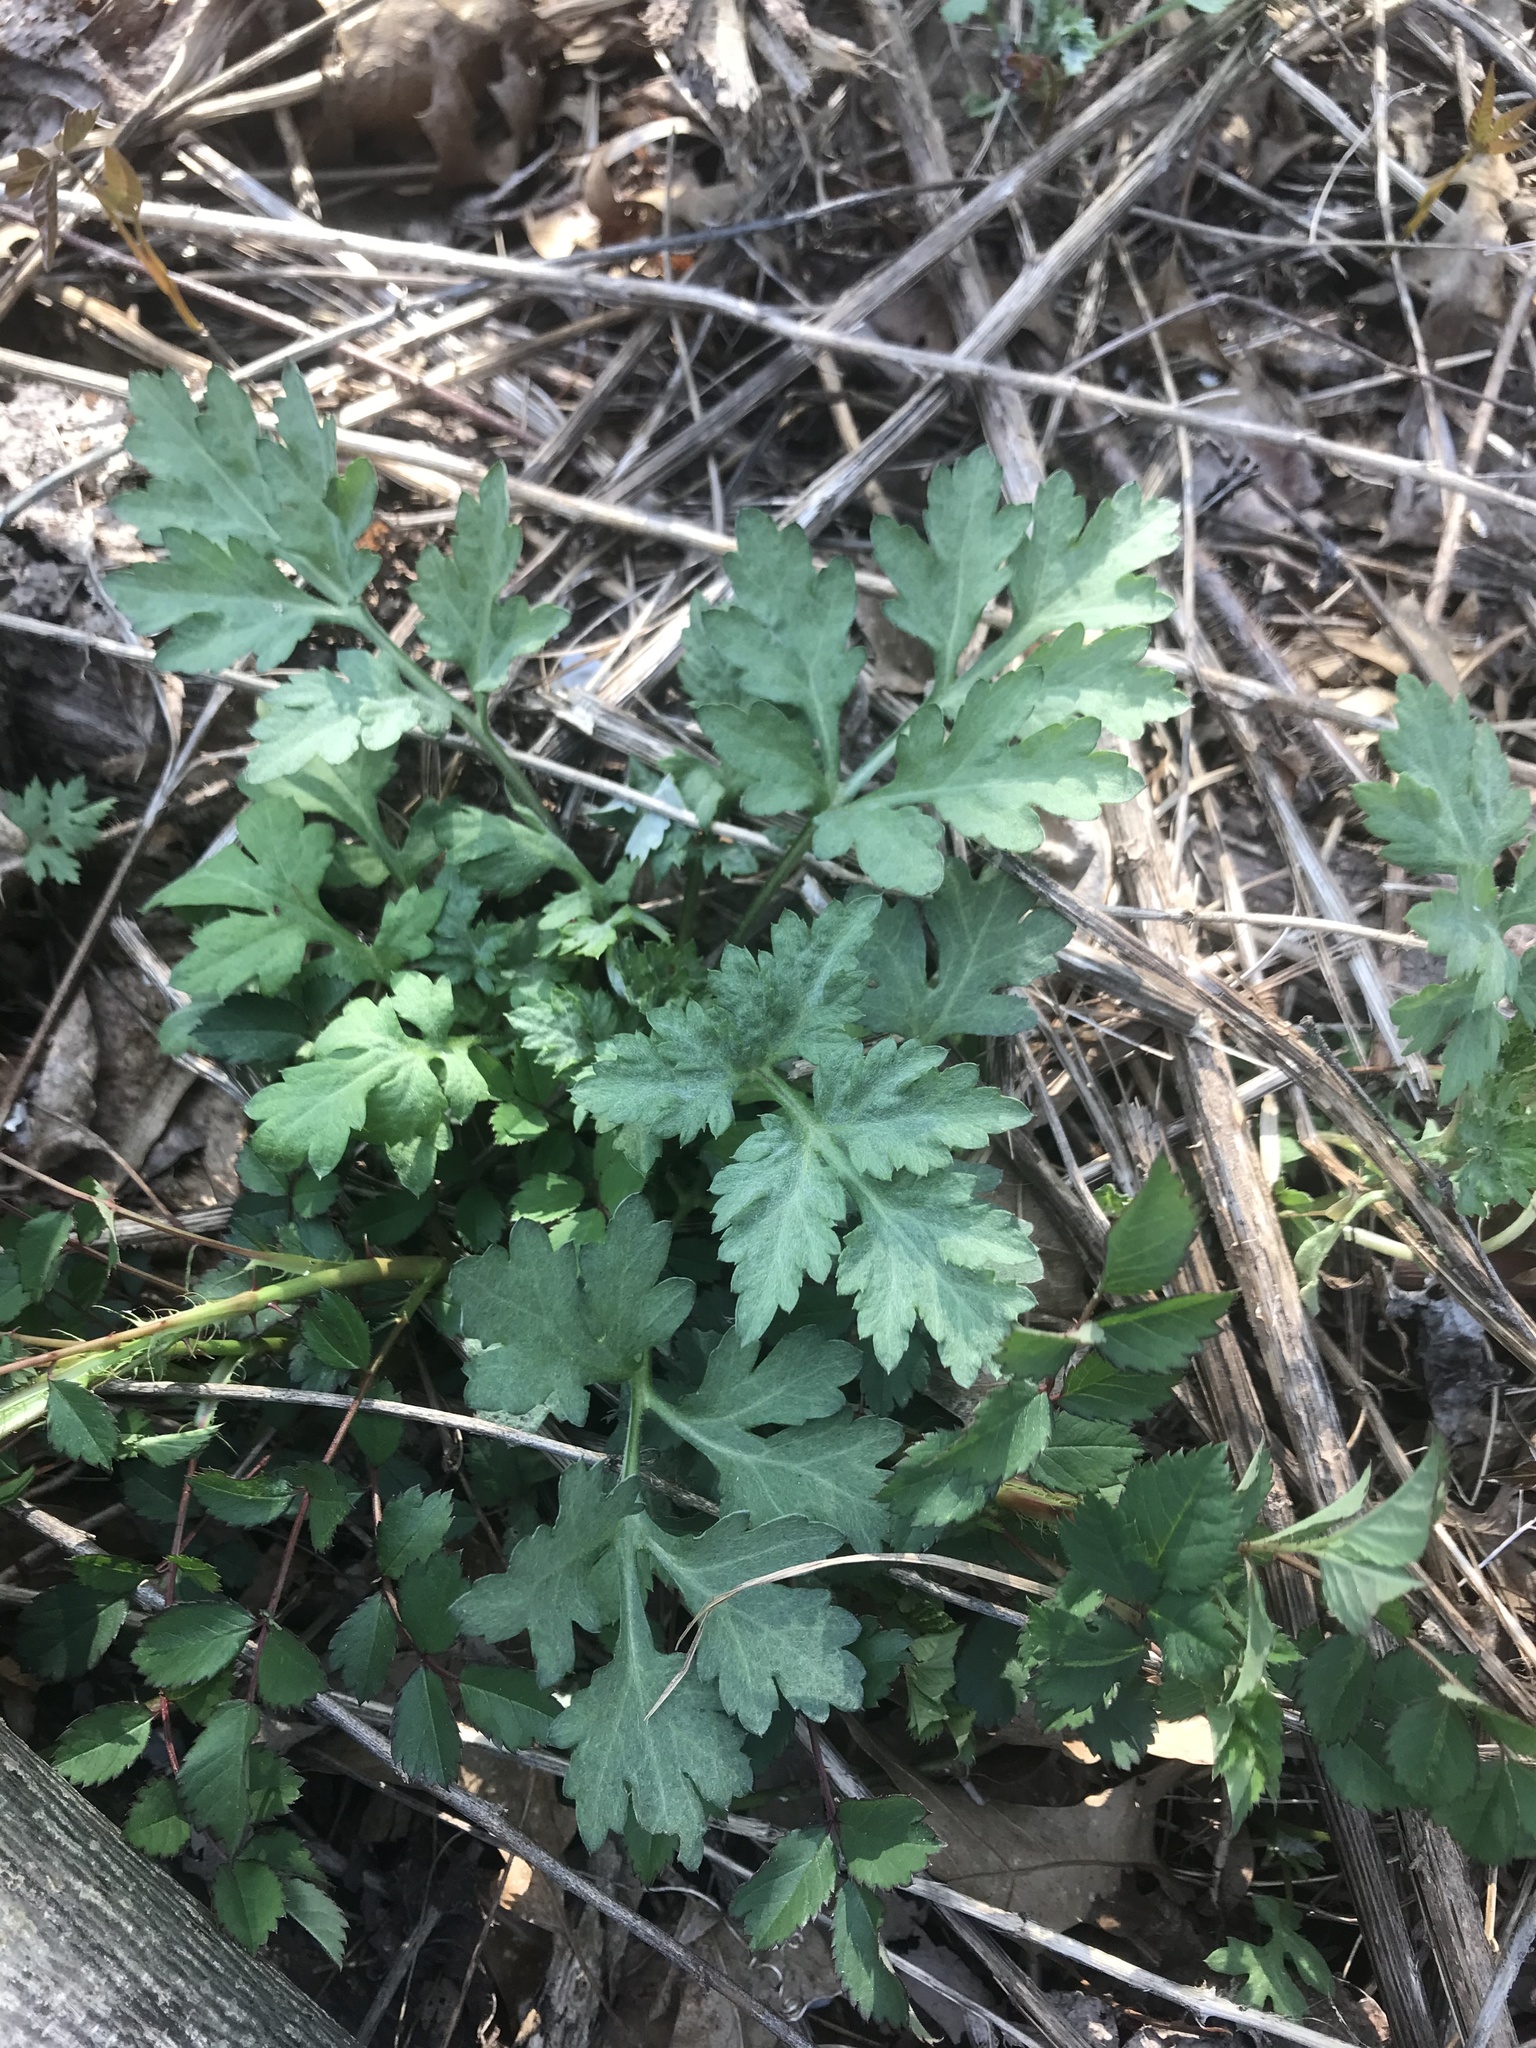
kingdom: Plantae
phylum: Tracheophyta
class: Magnoliopsida
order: Asterales
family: Asteraceae
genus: Artemisia
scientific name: Artemisia vulgaris
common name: Mugwort
